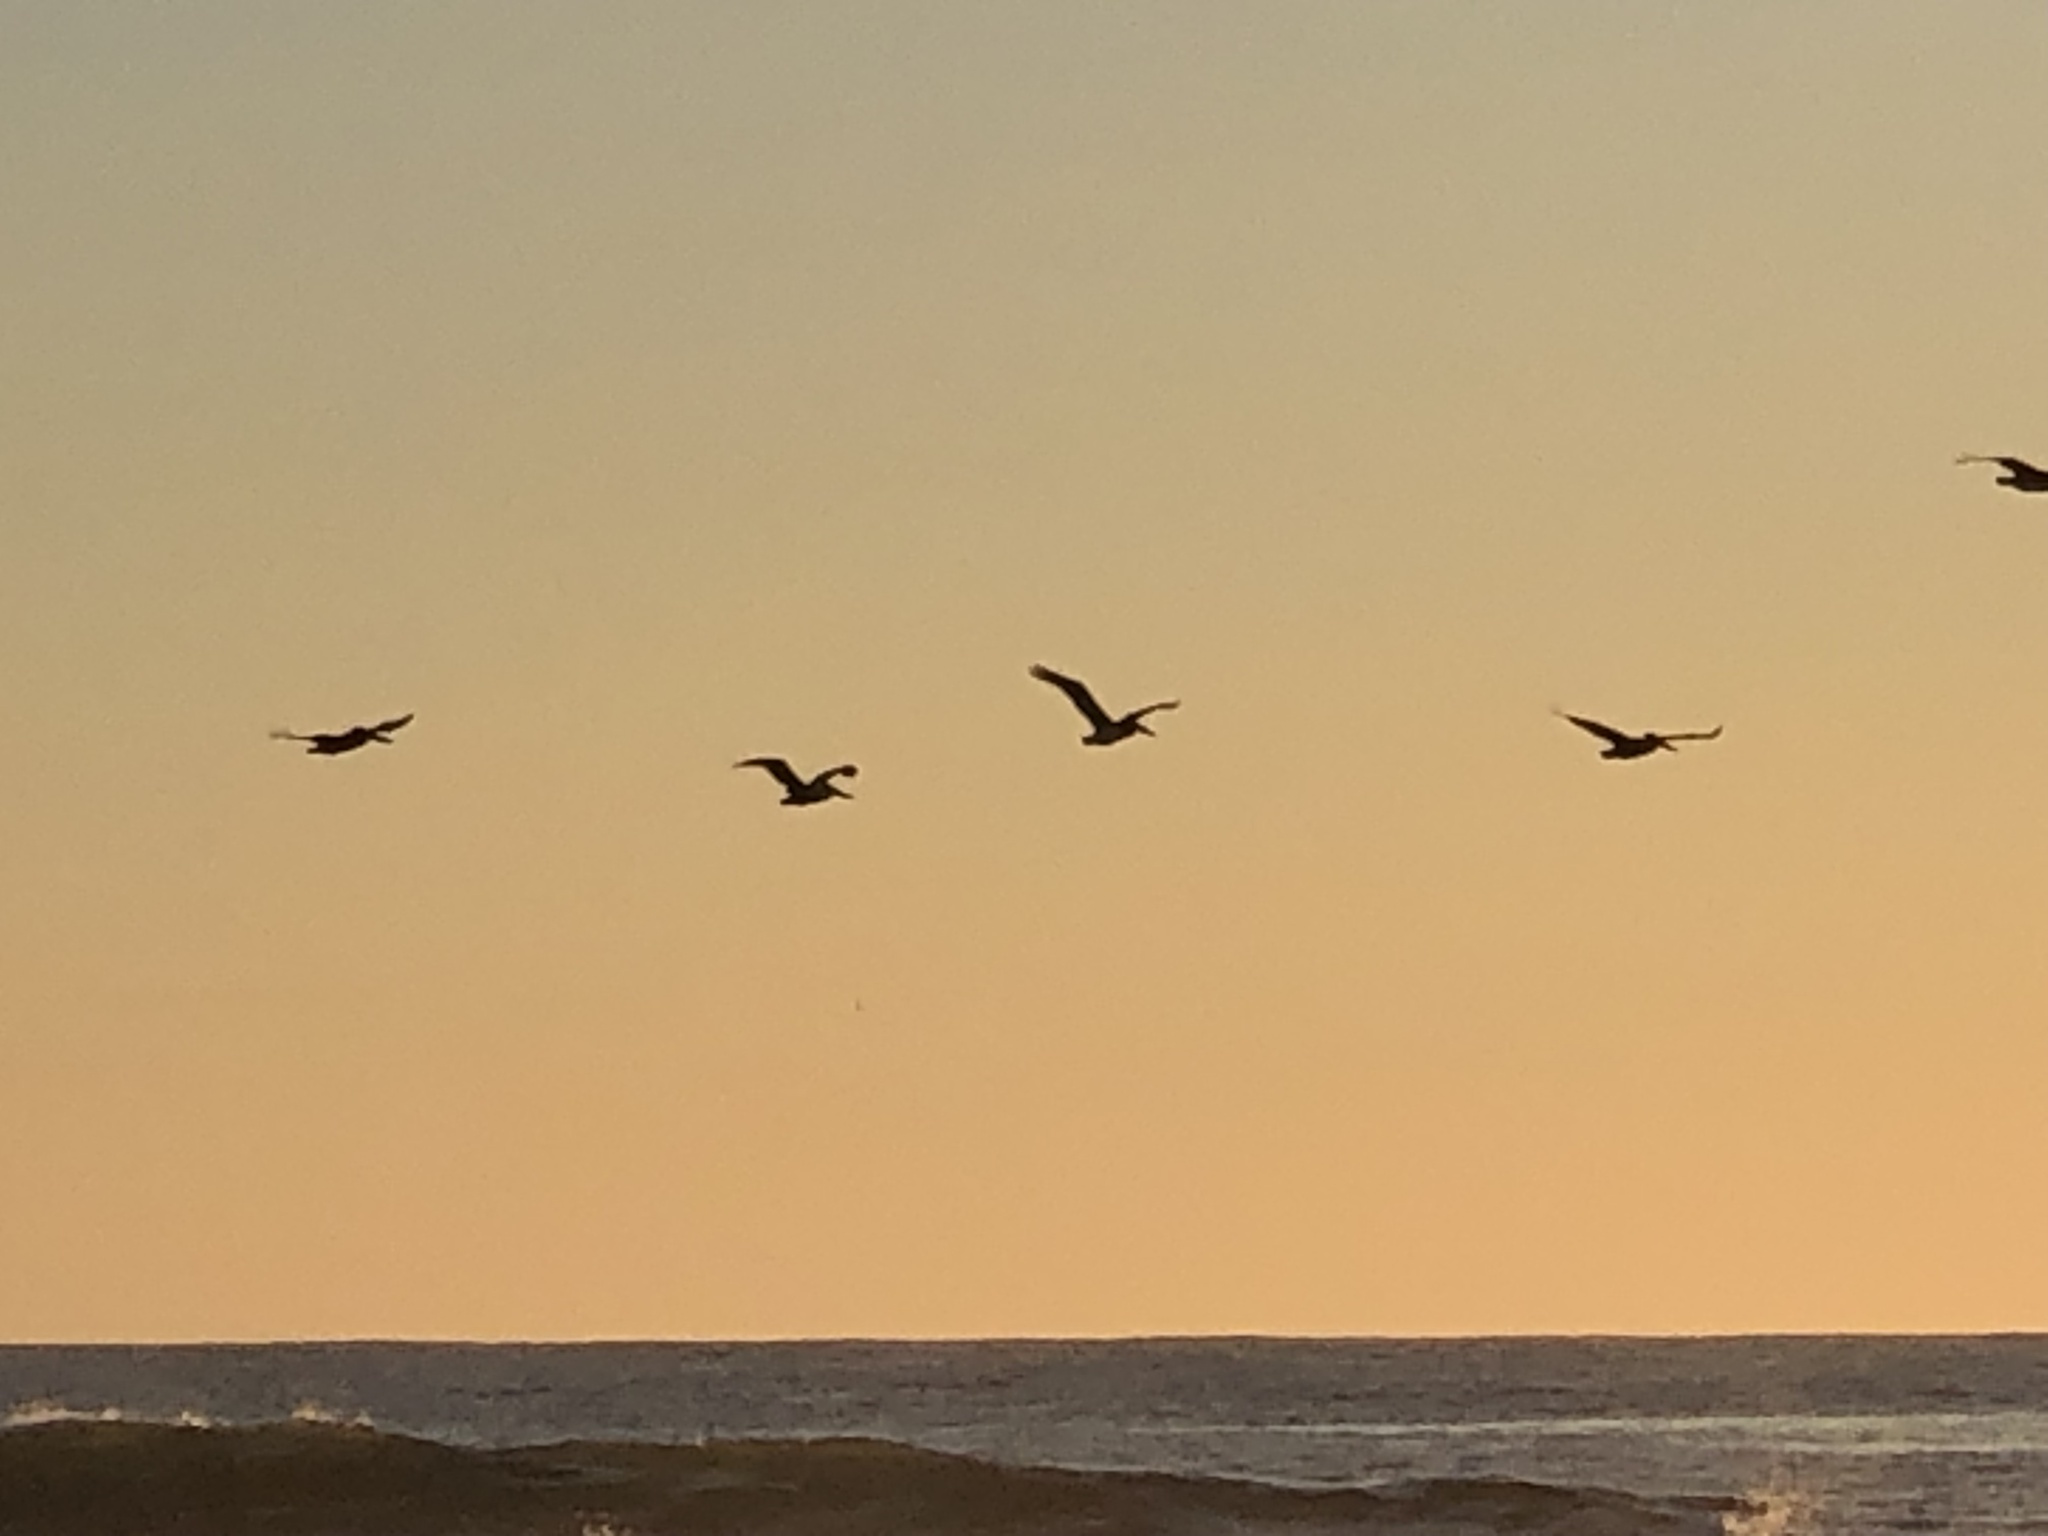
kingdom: Animalia
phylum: Chordata
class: Aves
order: Pelecaniformes
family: Pelecanidae
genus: Pelecanus
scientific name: Pelecanus occidentalis
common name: Brown pelican
